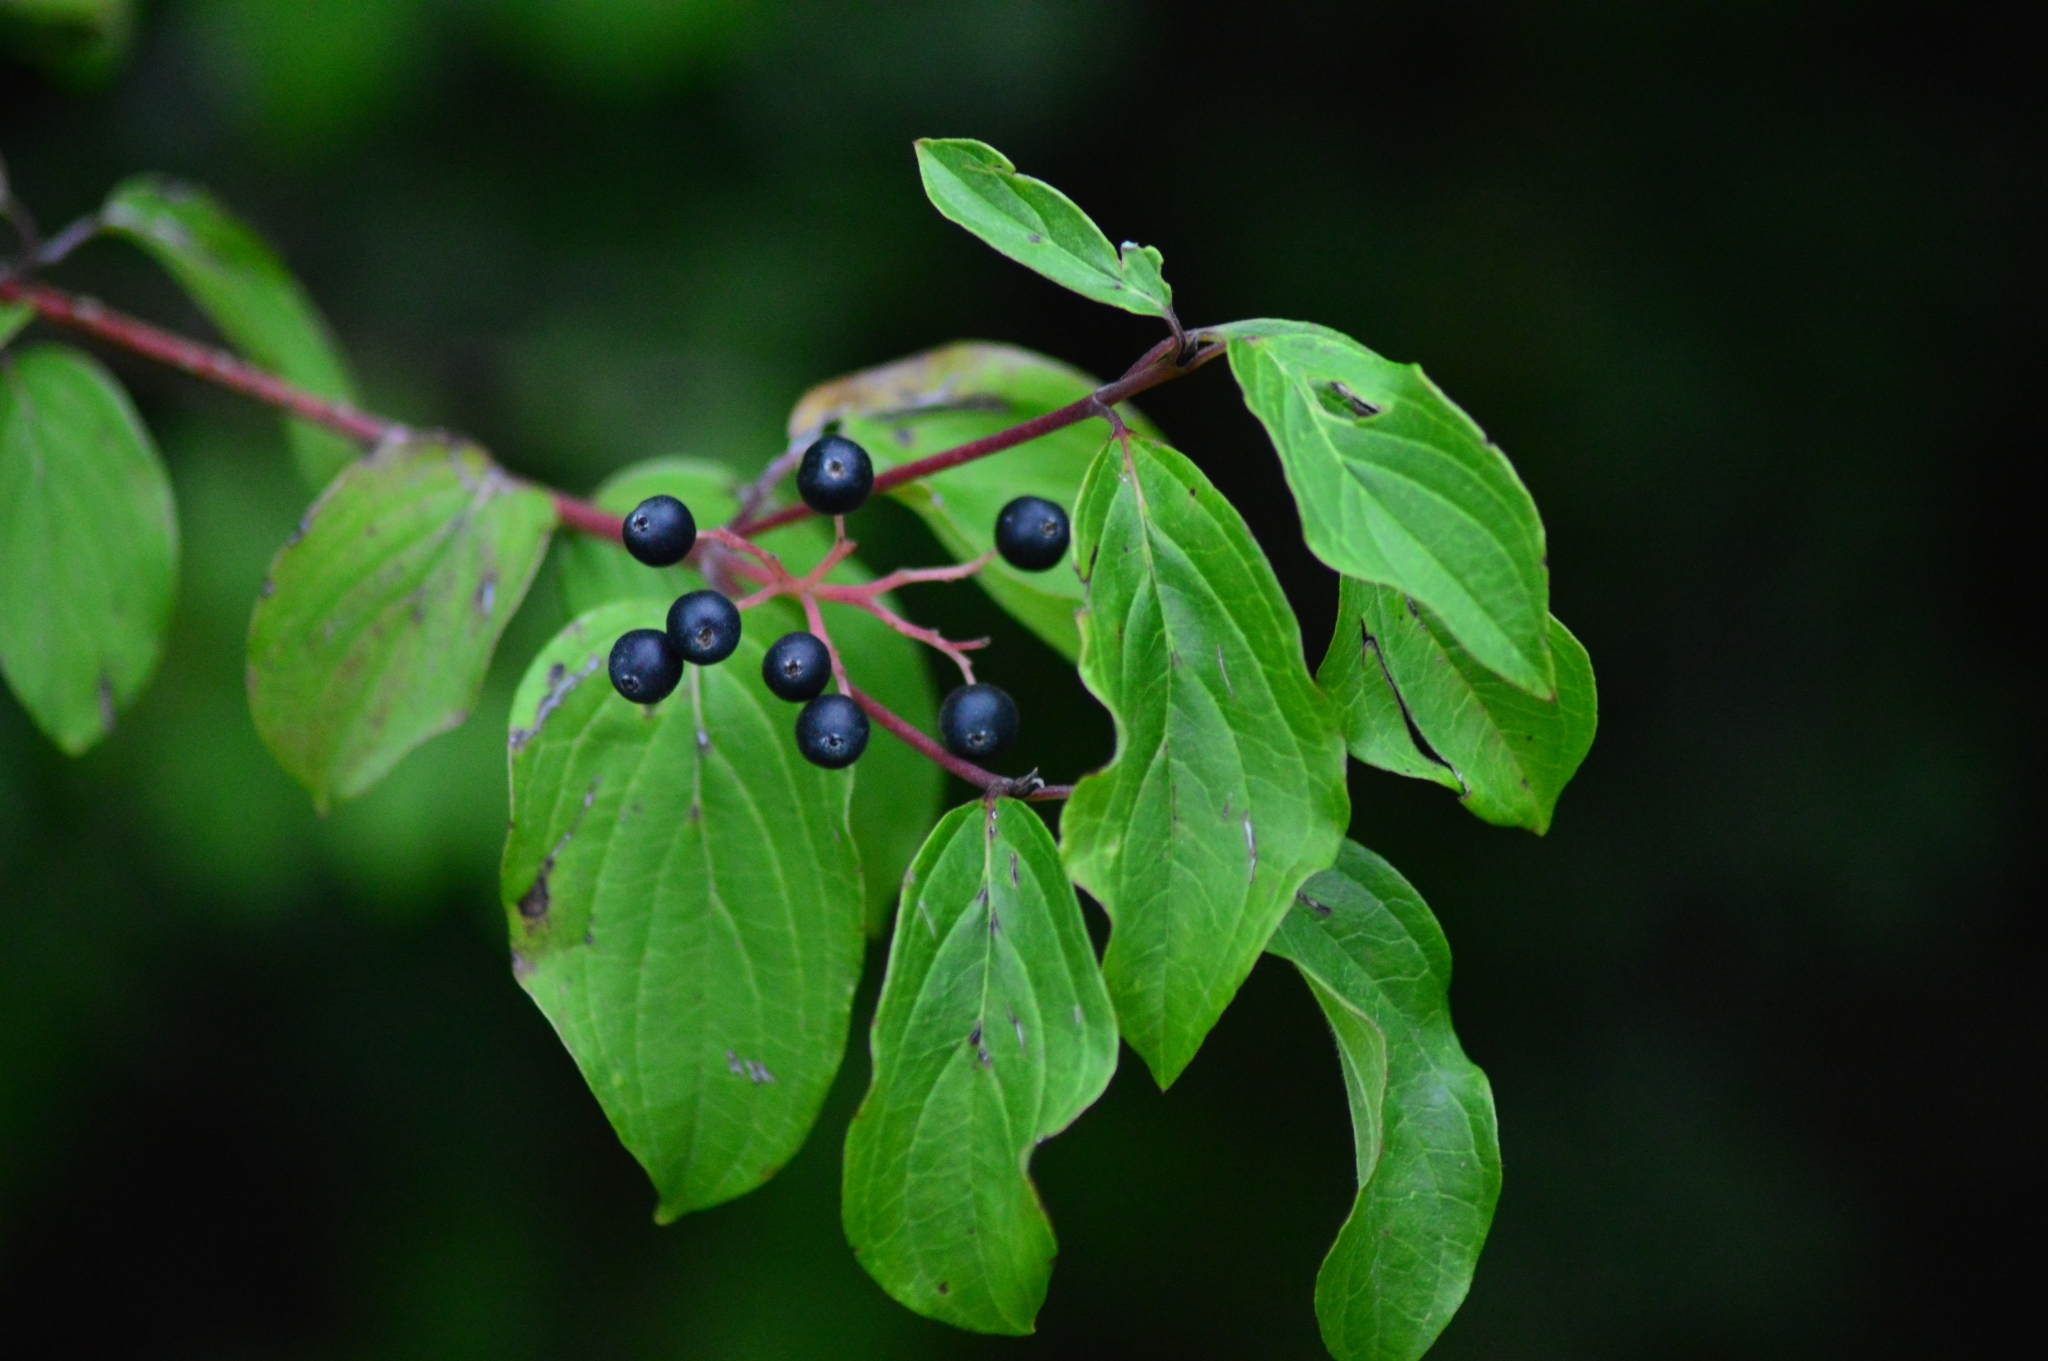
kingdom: Plantae
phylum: Tracheophyta
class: Magnoliopsida
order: Cornales
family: Cornaceae
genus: Cornus
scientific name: Cornus sanguinea
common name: Dogwood
